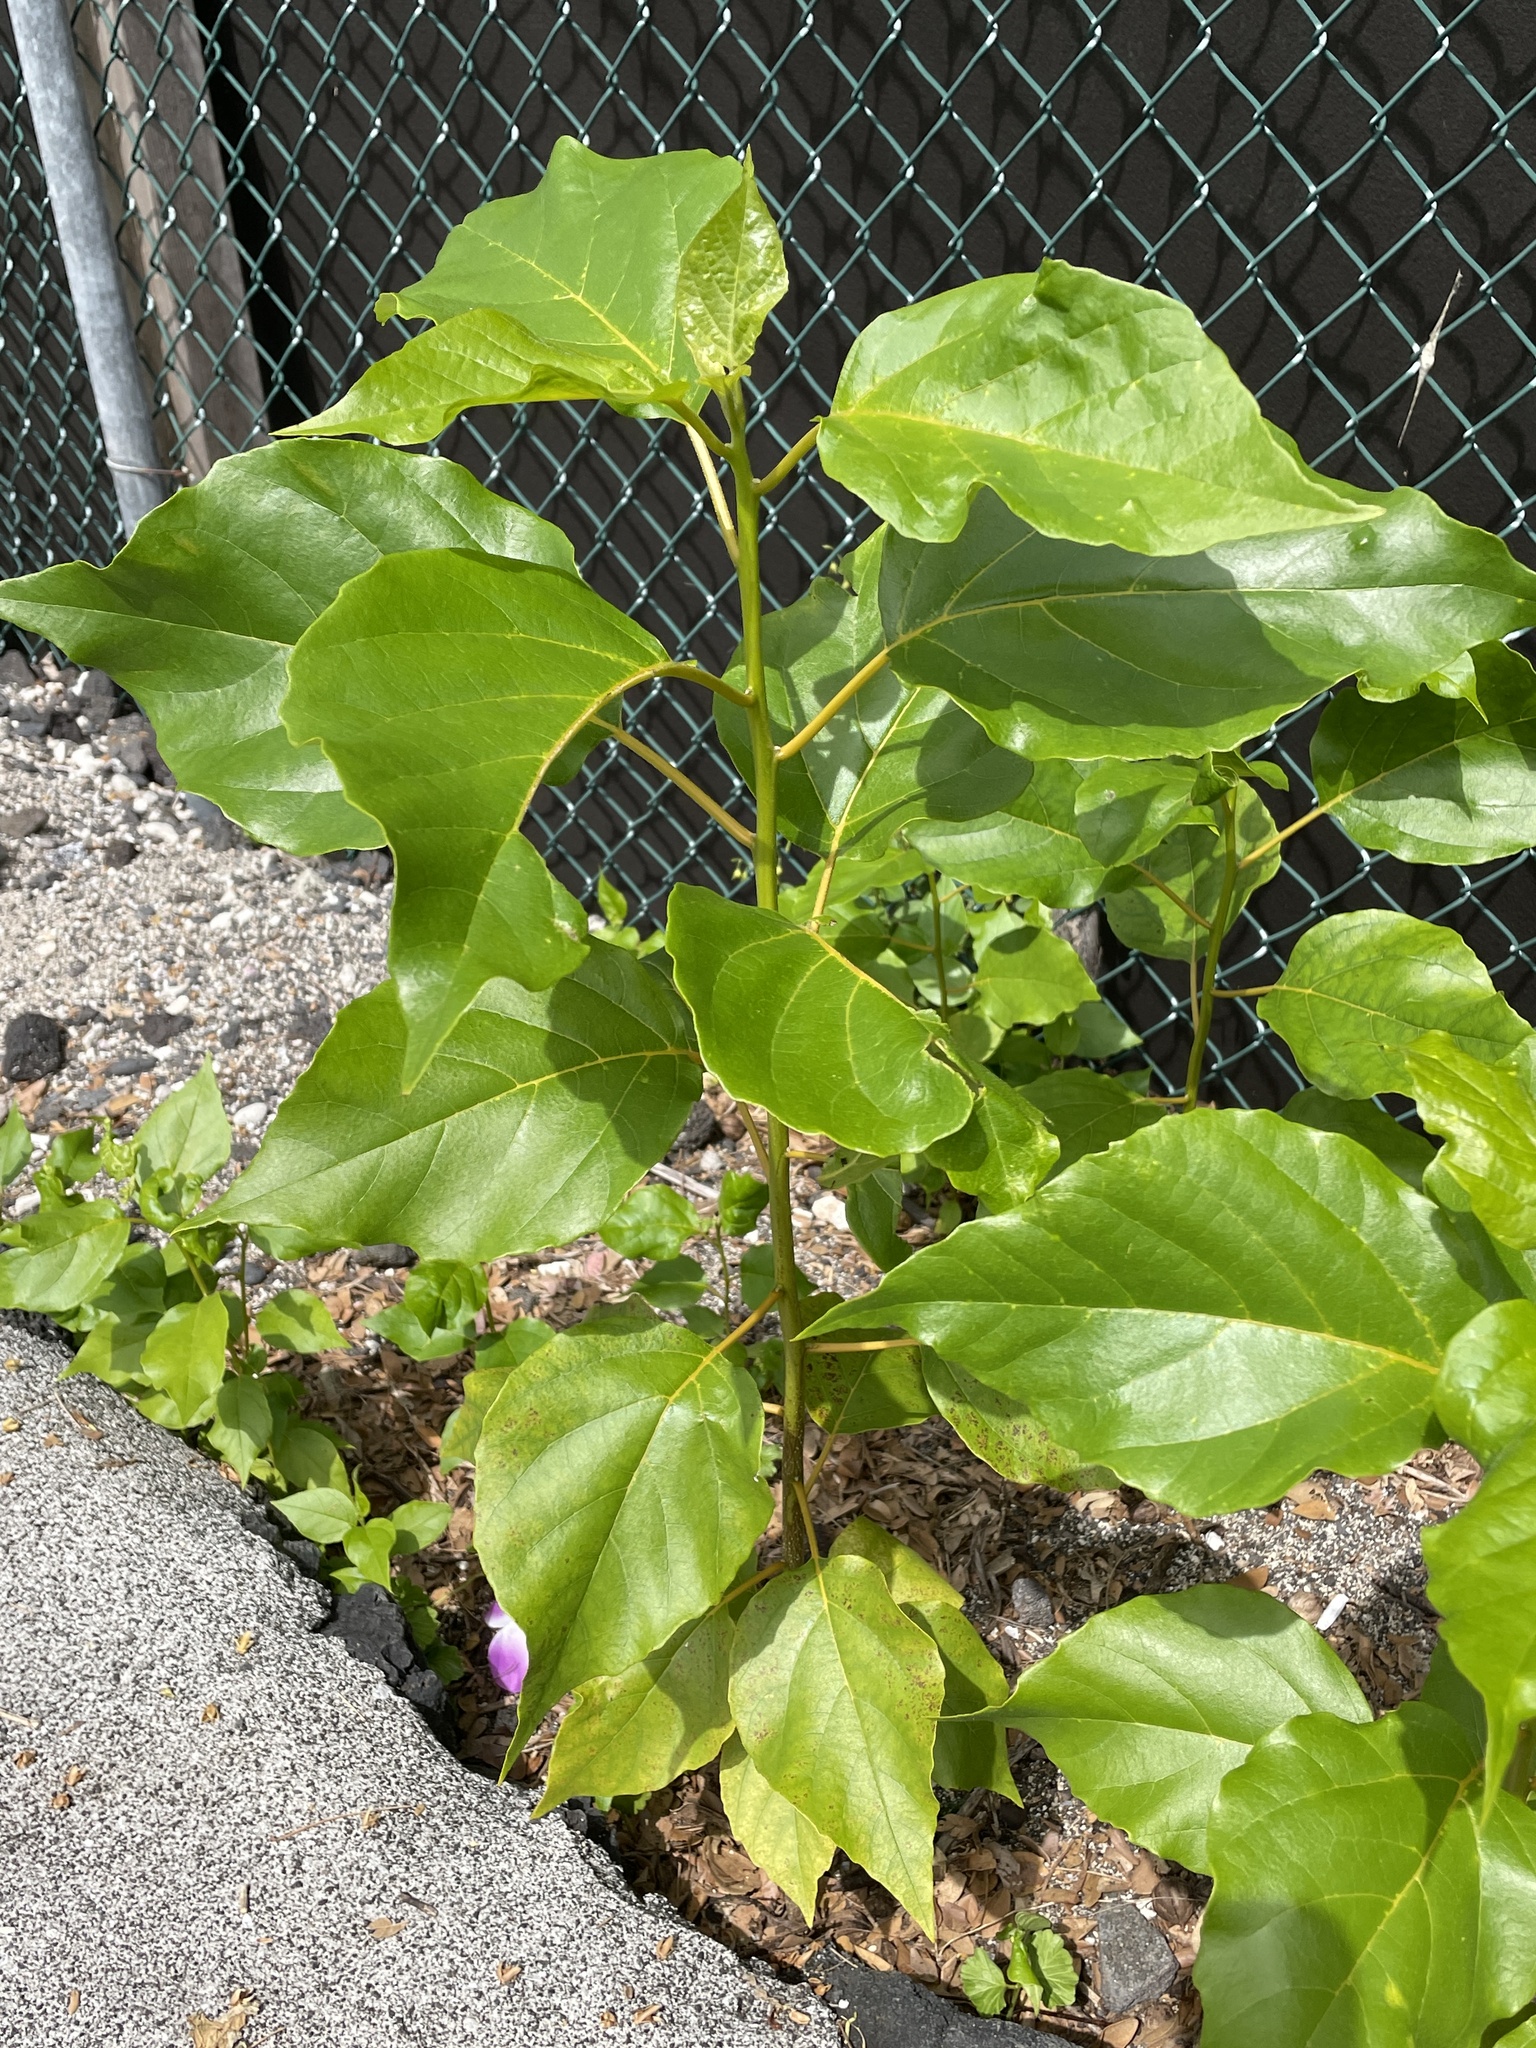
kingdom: Plantae
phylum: Tracheophyta
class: Magnoliopsida
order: Boraginales
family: Cordiaceae
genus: Cordia
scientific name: Cordia subcordata
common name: Mareer
